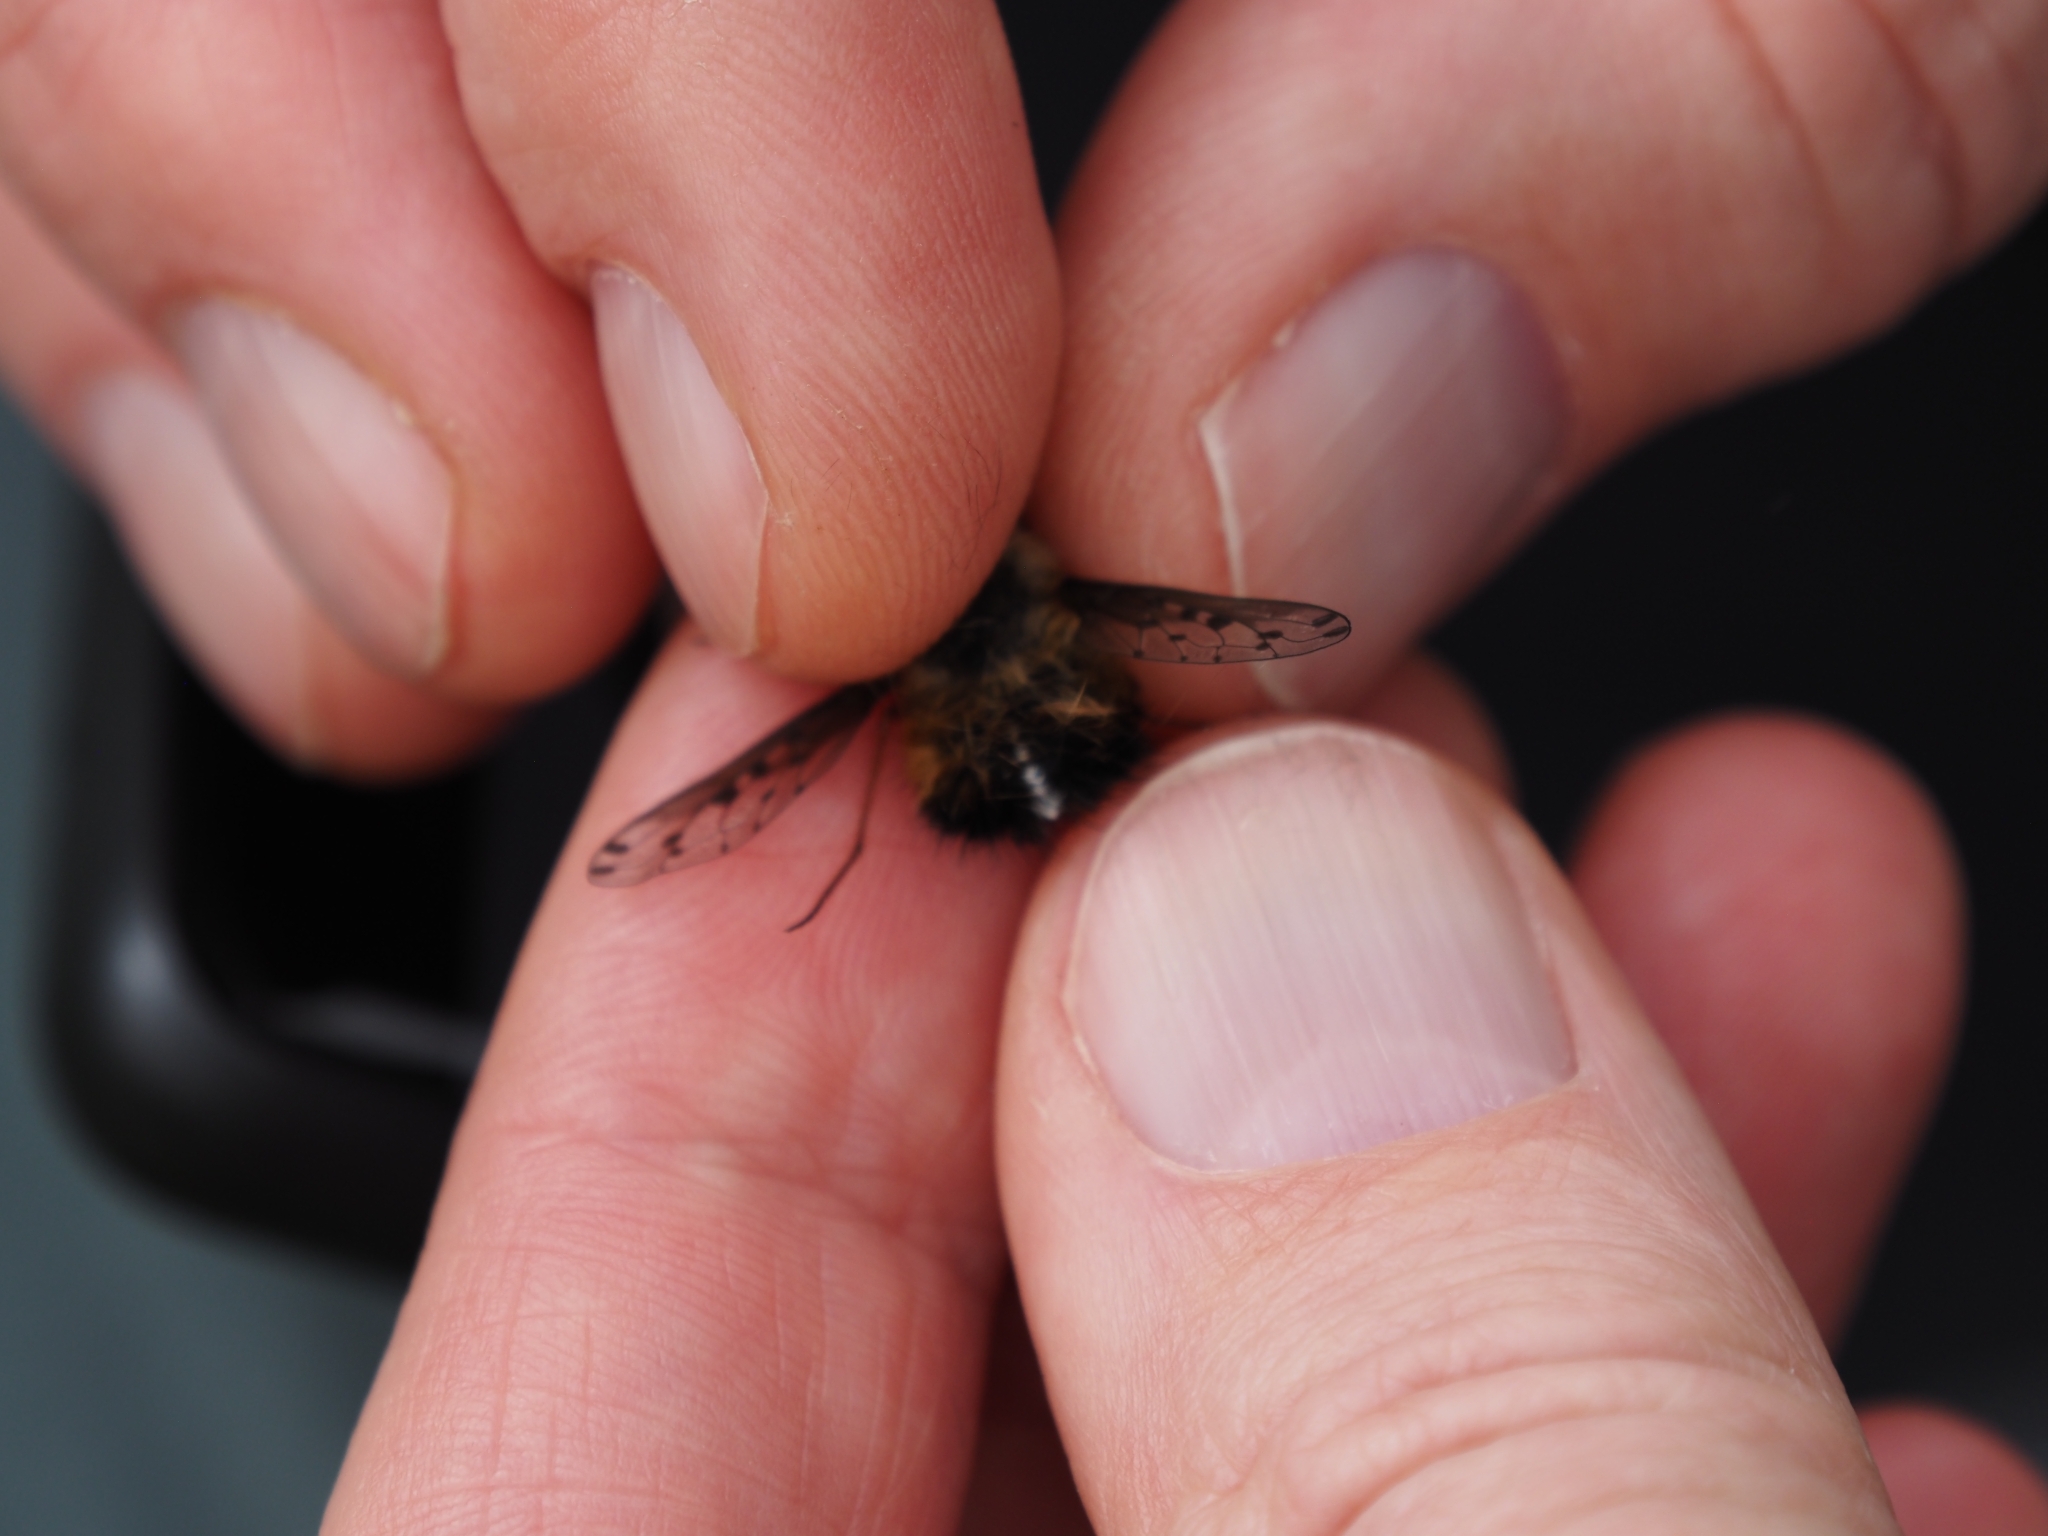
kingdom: Animalia
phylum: Arthropoda
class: Insecta
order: Diptera
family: Bombyliidae
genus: Bombylius
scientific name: Bombylius discolor
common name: Dotted bee-fly
